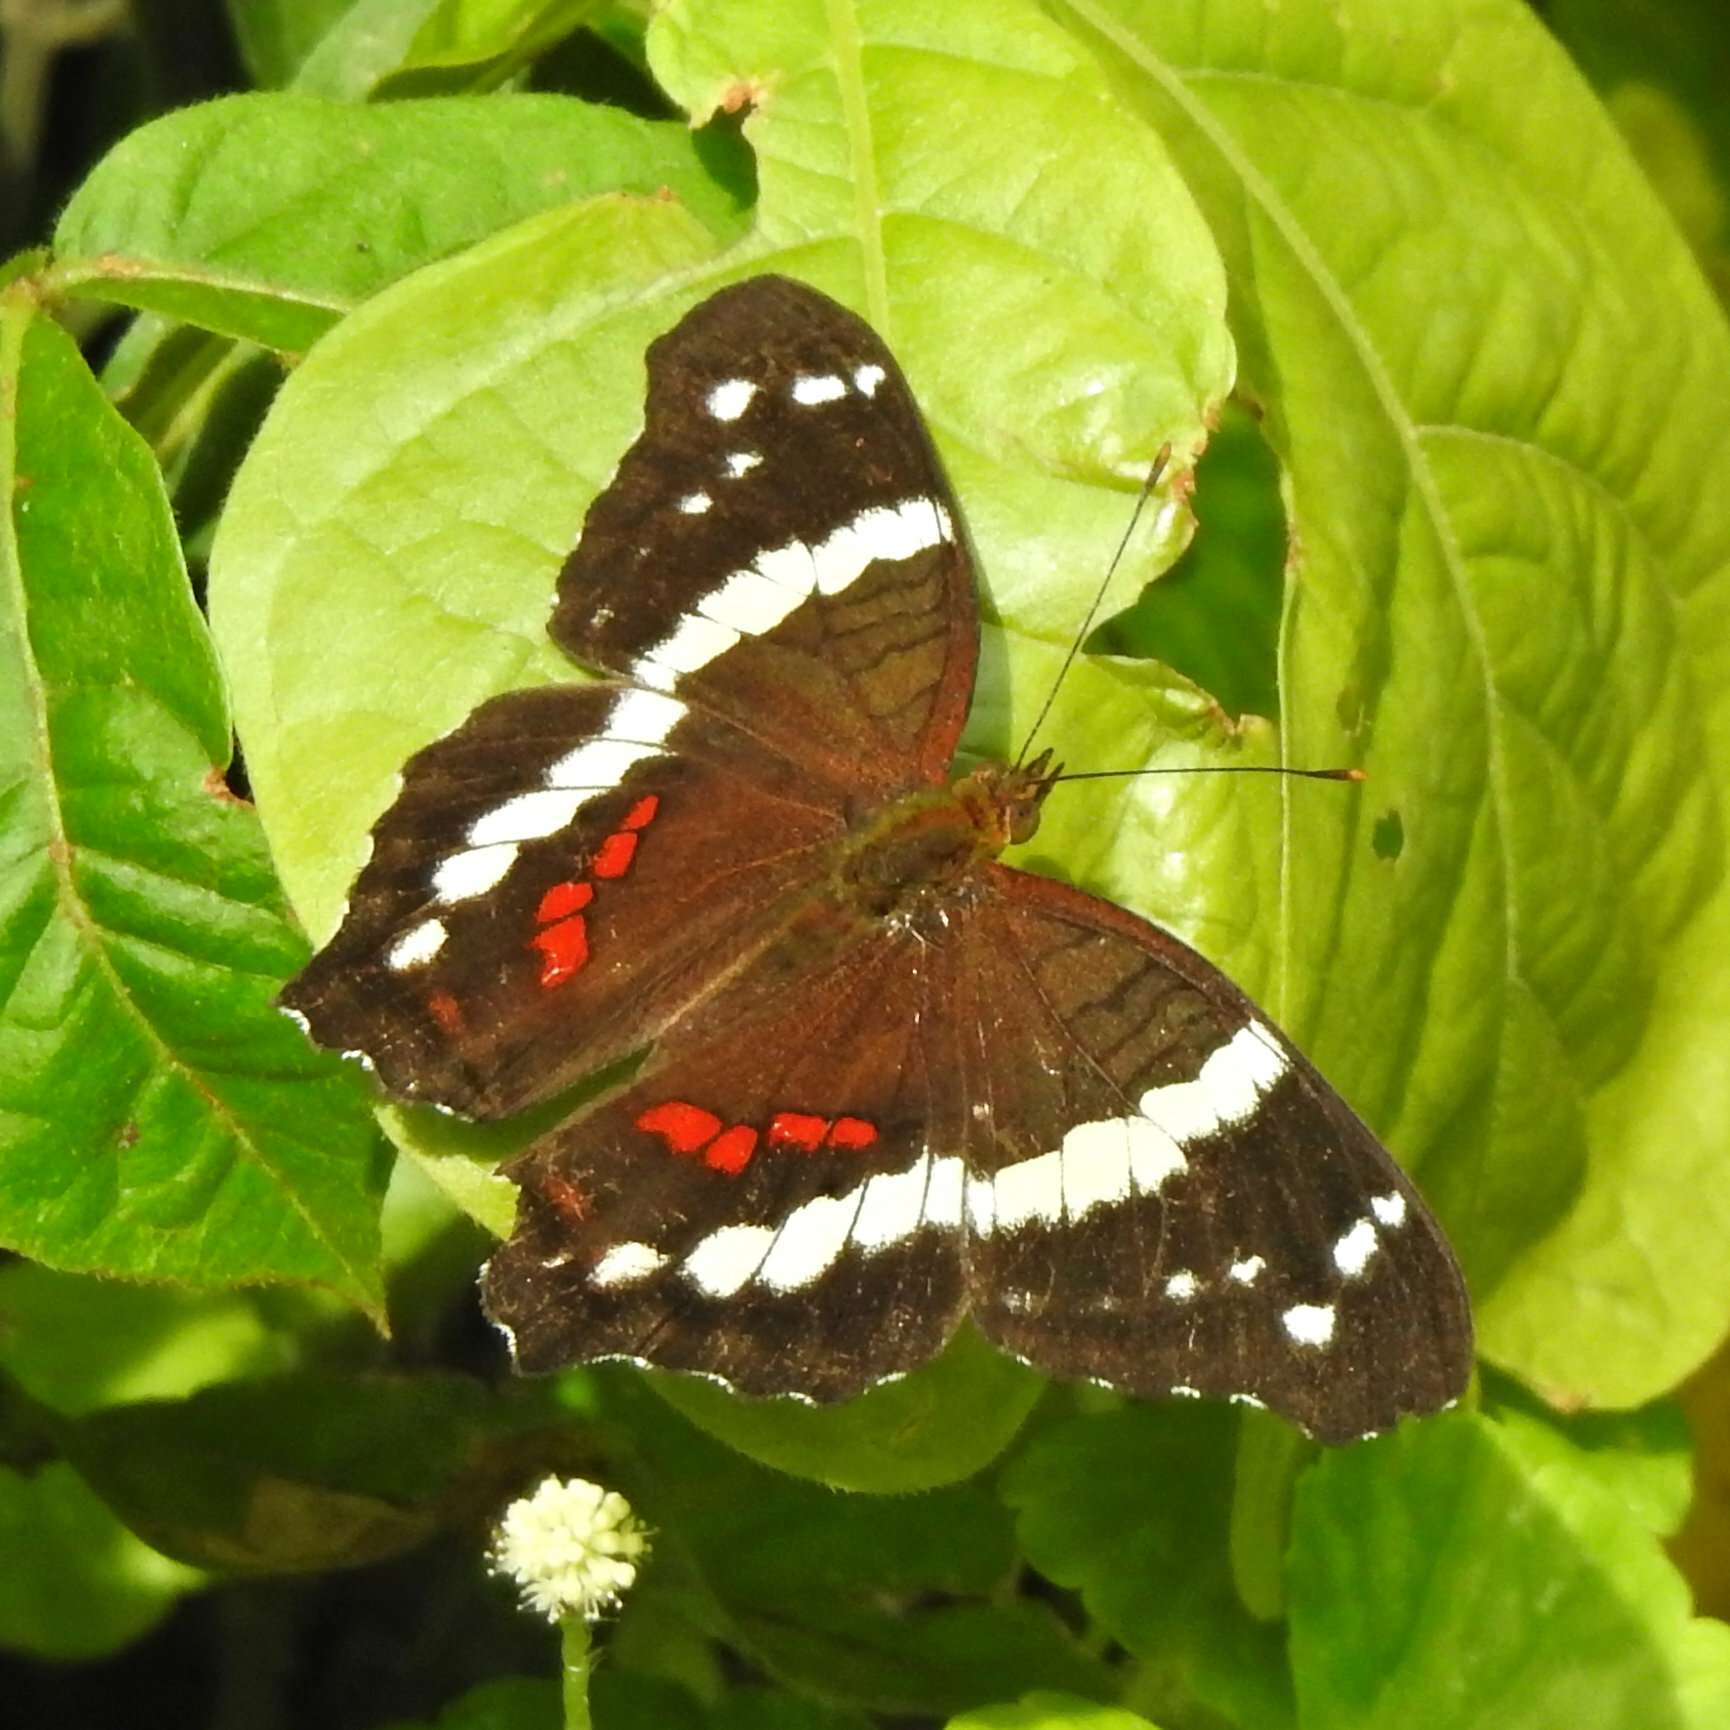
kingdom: Animalia
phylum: Arthropoda
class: Insecta
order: Lepidoptera
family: Nymphalidae
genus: Anartia
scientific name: Anartia fatima
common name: Banded peacock
